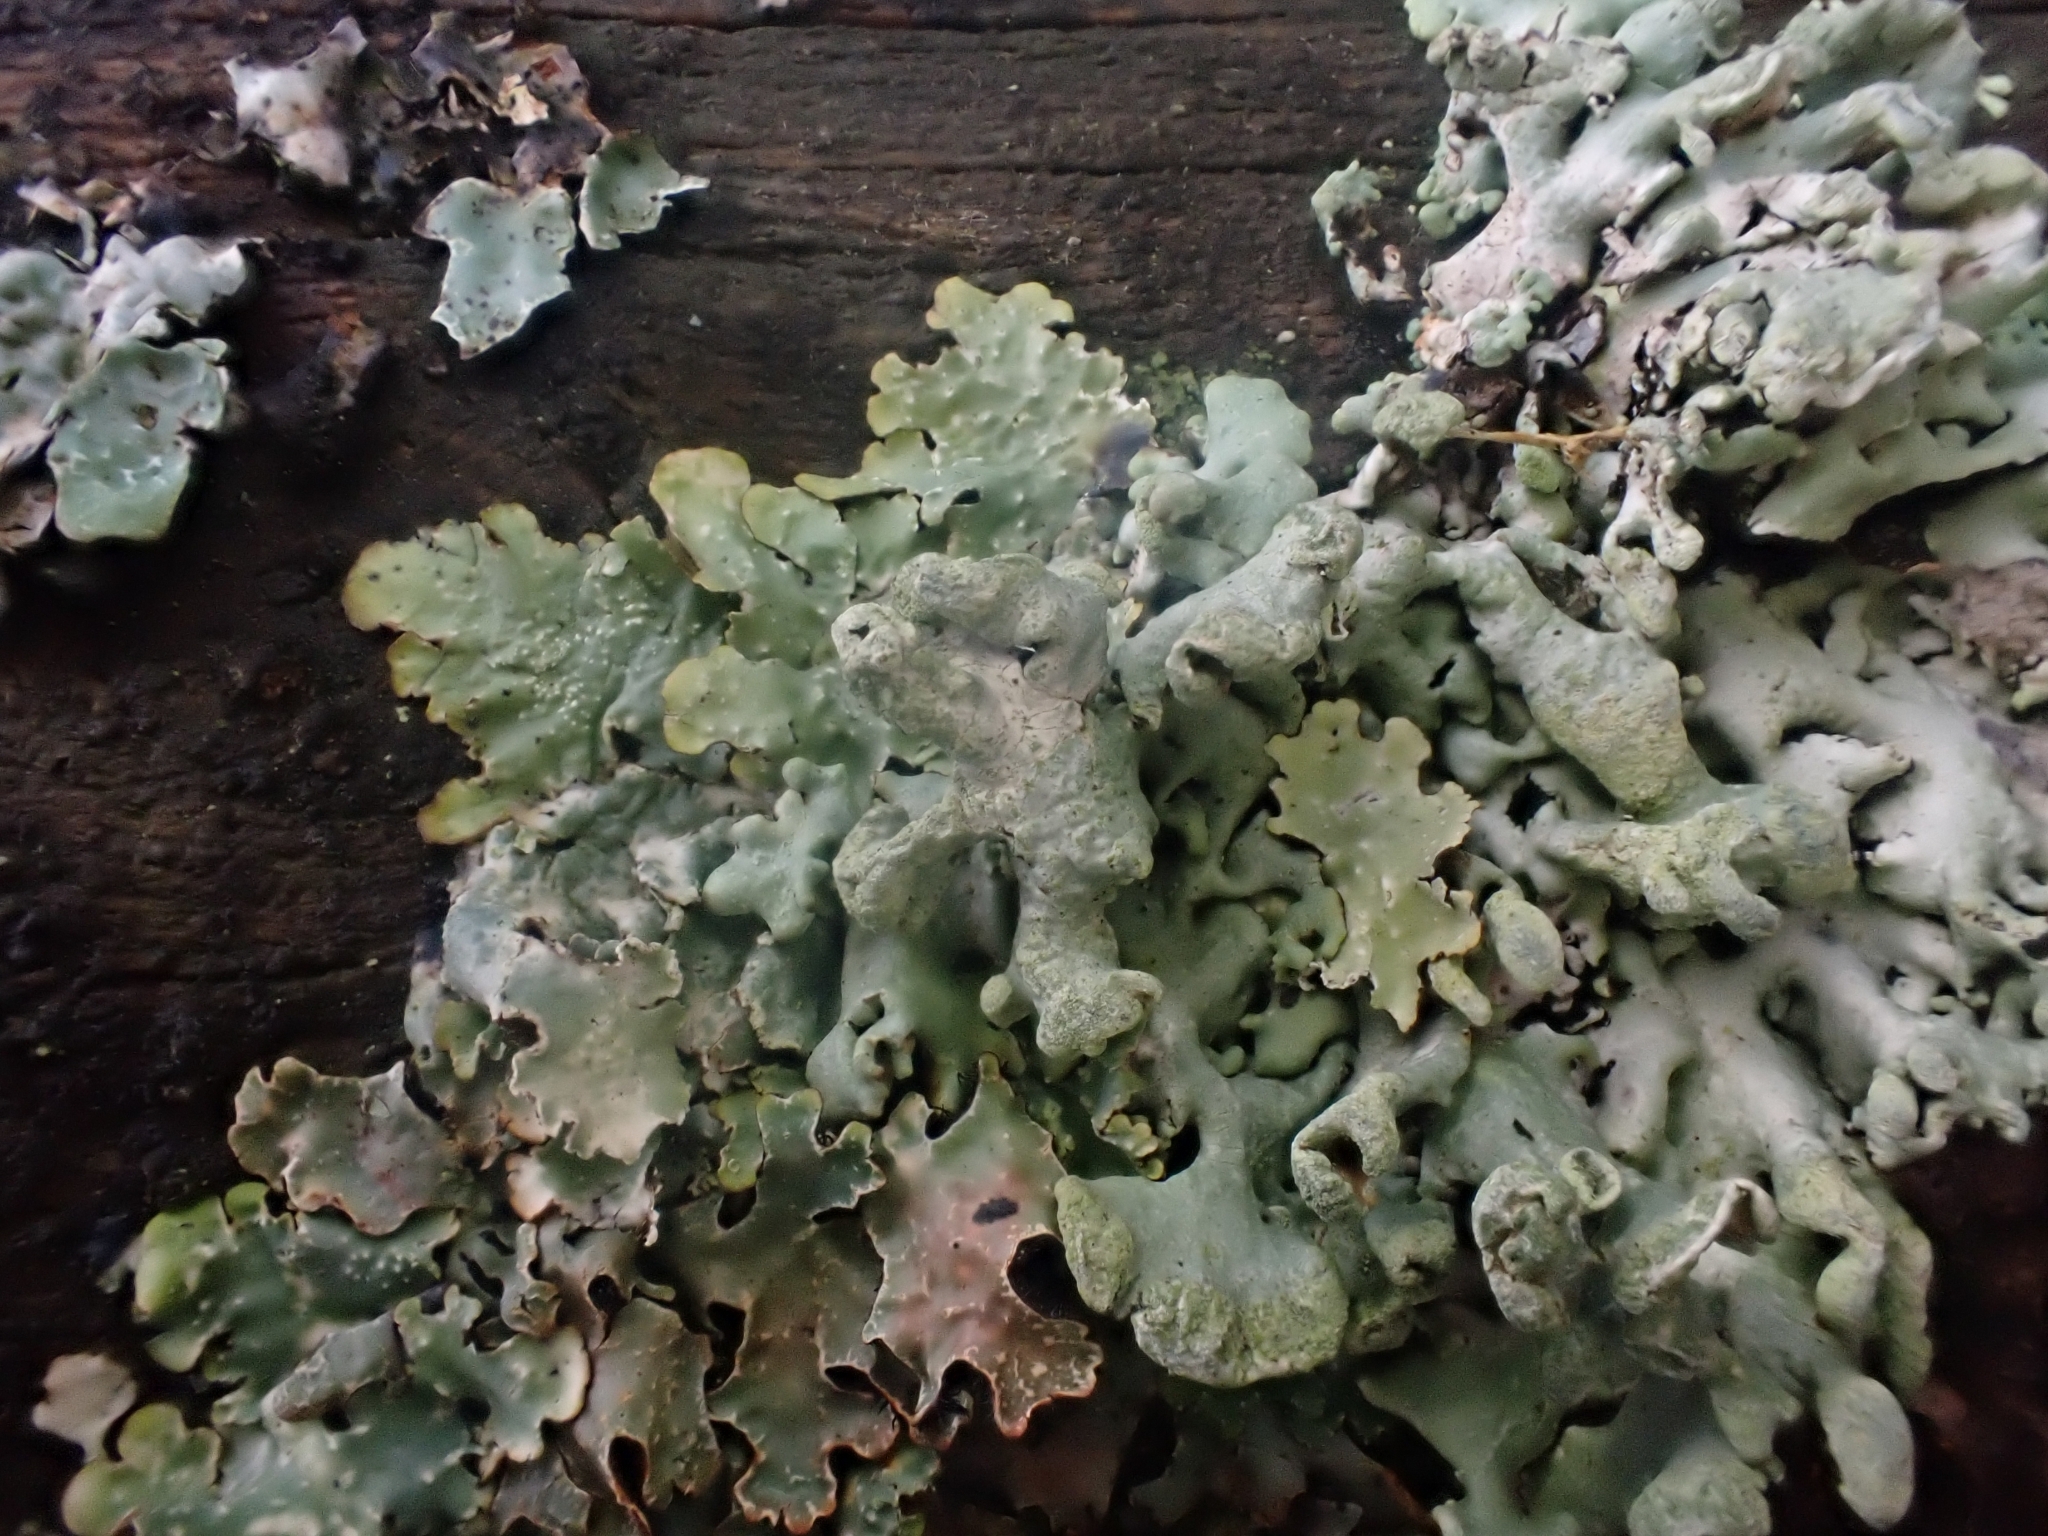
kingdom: Fungi
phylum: Ascomycota
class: Lecanoromycetes
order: Lecanorales
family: Parmeliaceae
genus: Hypogymnia
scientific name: Hypogymnia tubulosa
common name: Powder-headed tube lichen
